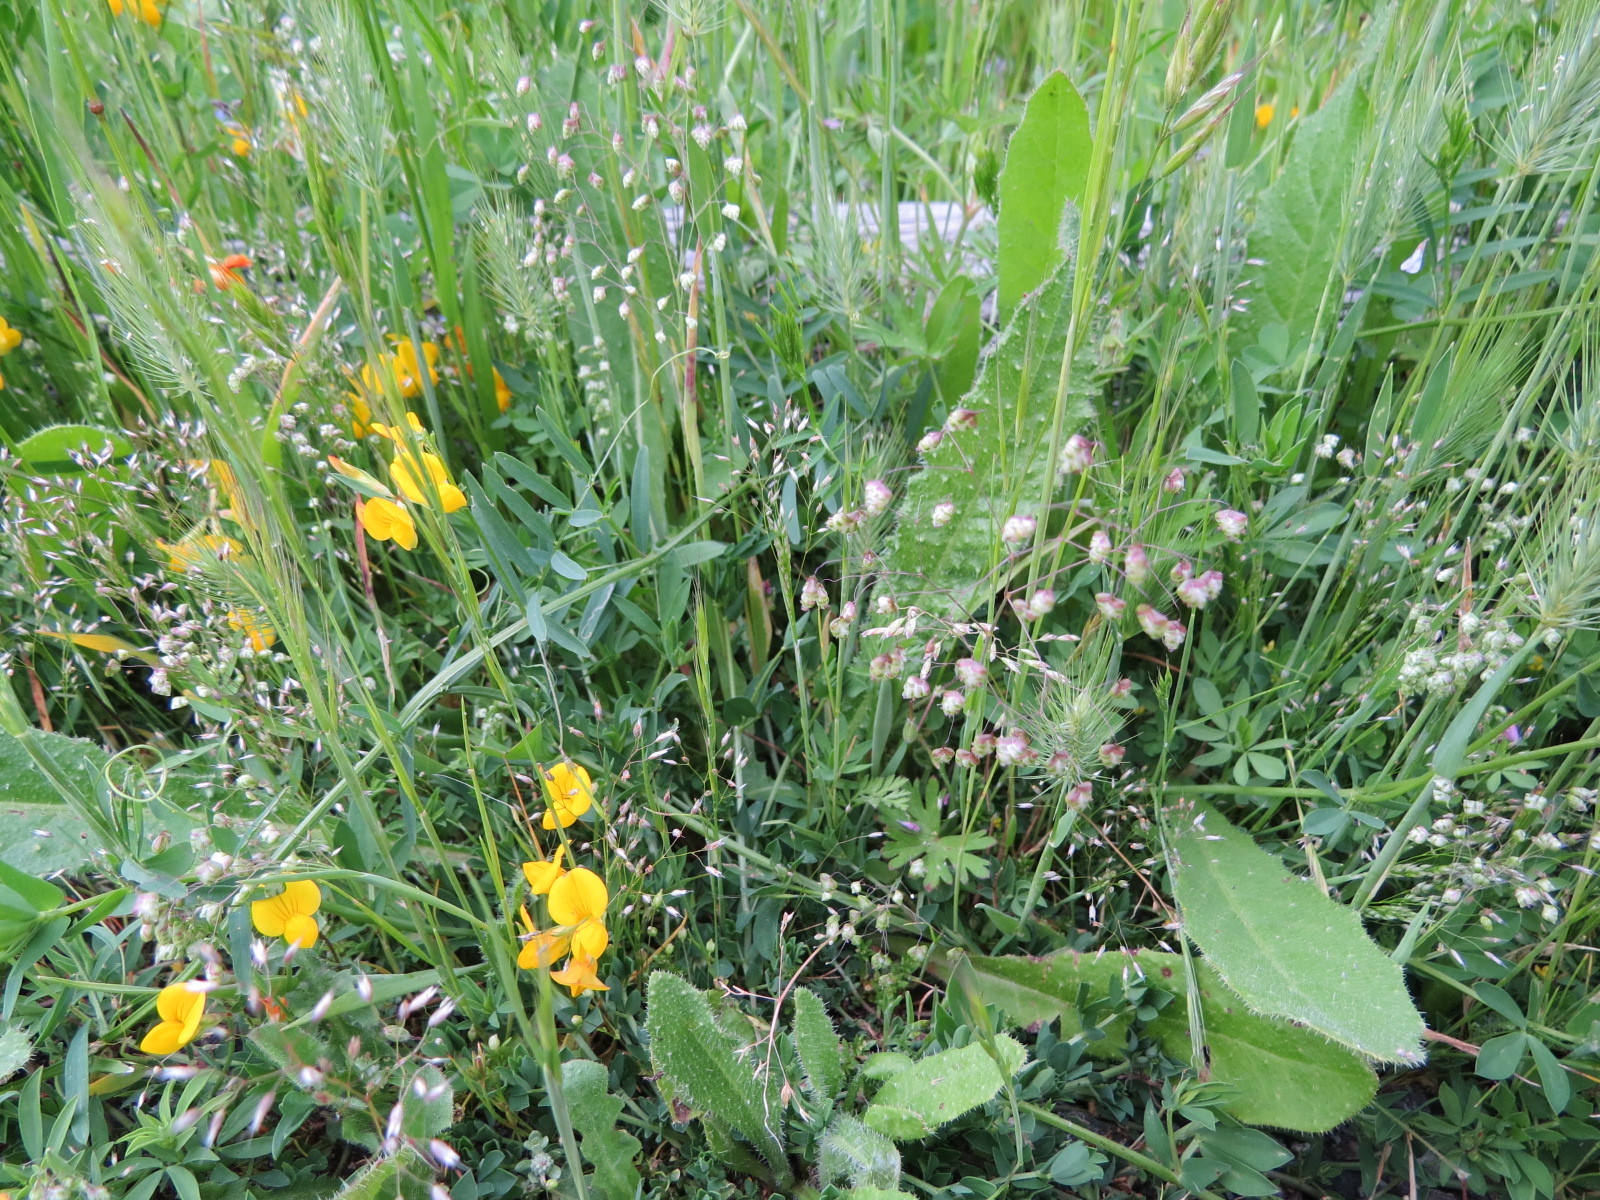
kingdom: Plantae
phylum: Tracheophyta
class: Liliopsida
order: Poales
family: Poaceae
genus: Briza
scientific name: Briza minor
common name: Lesser quaking-grass
